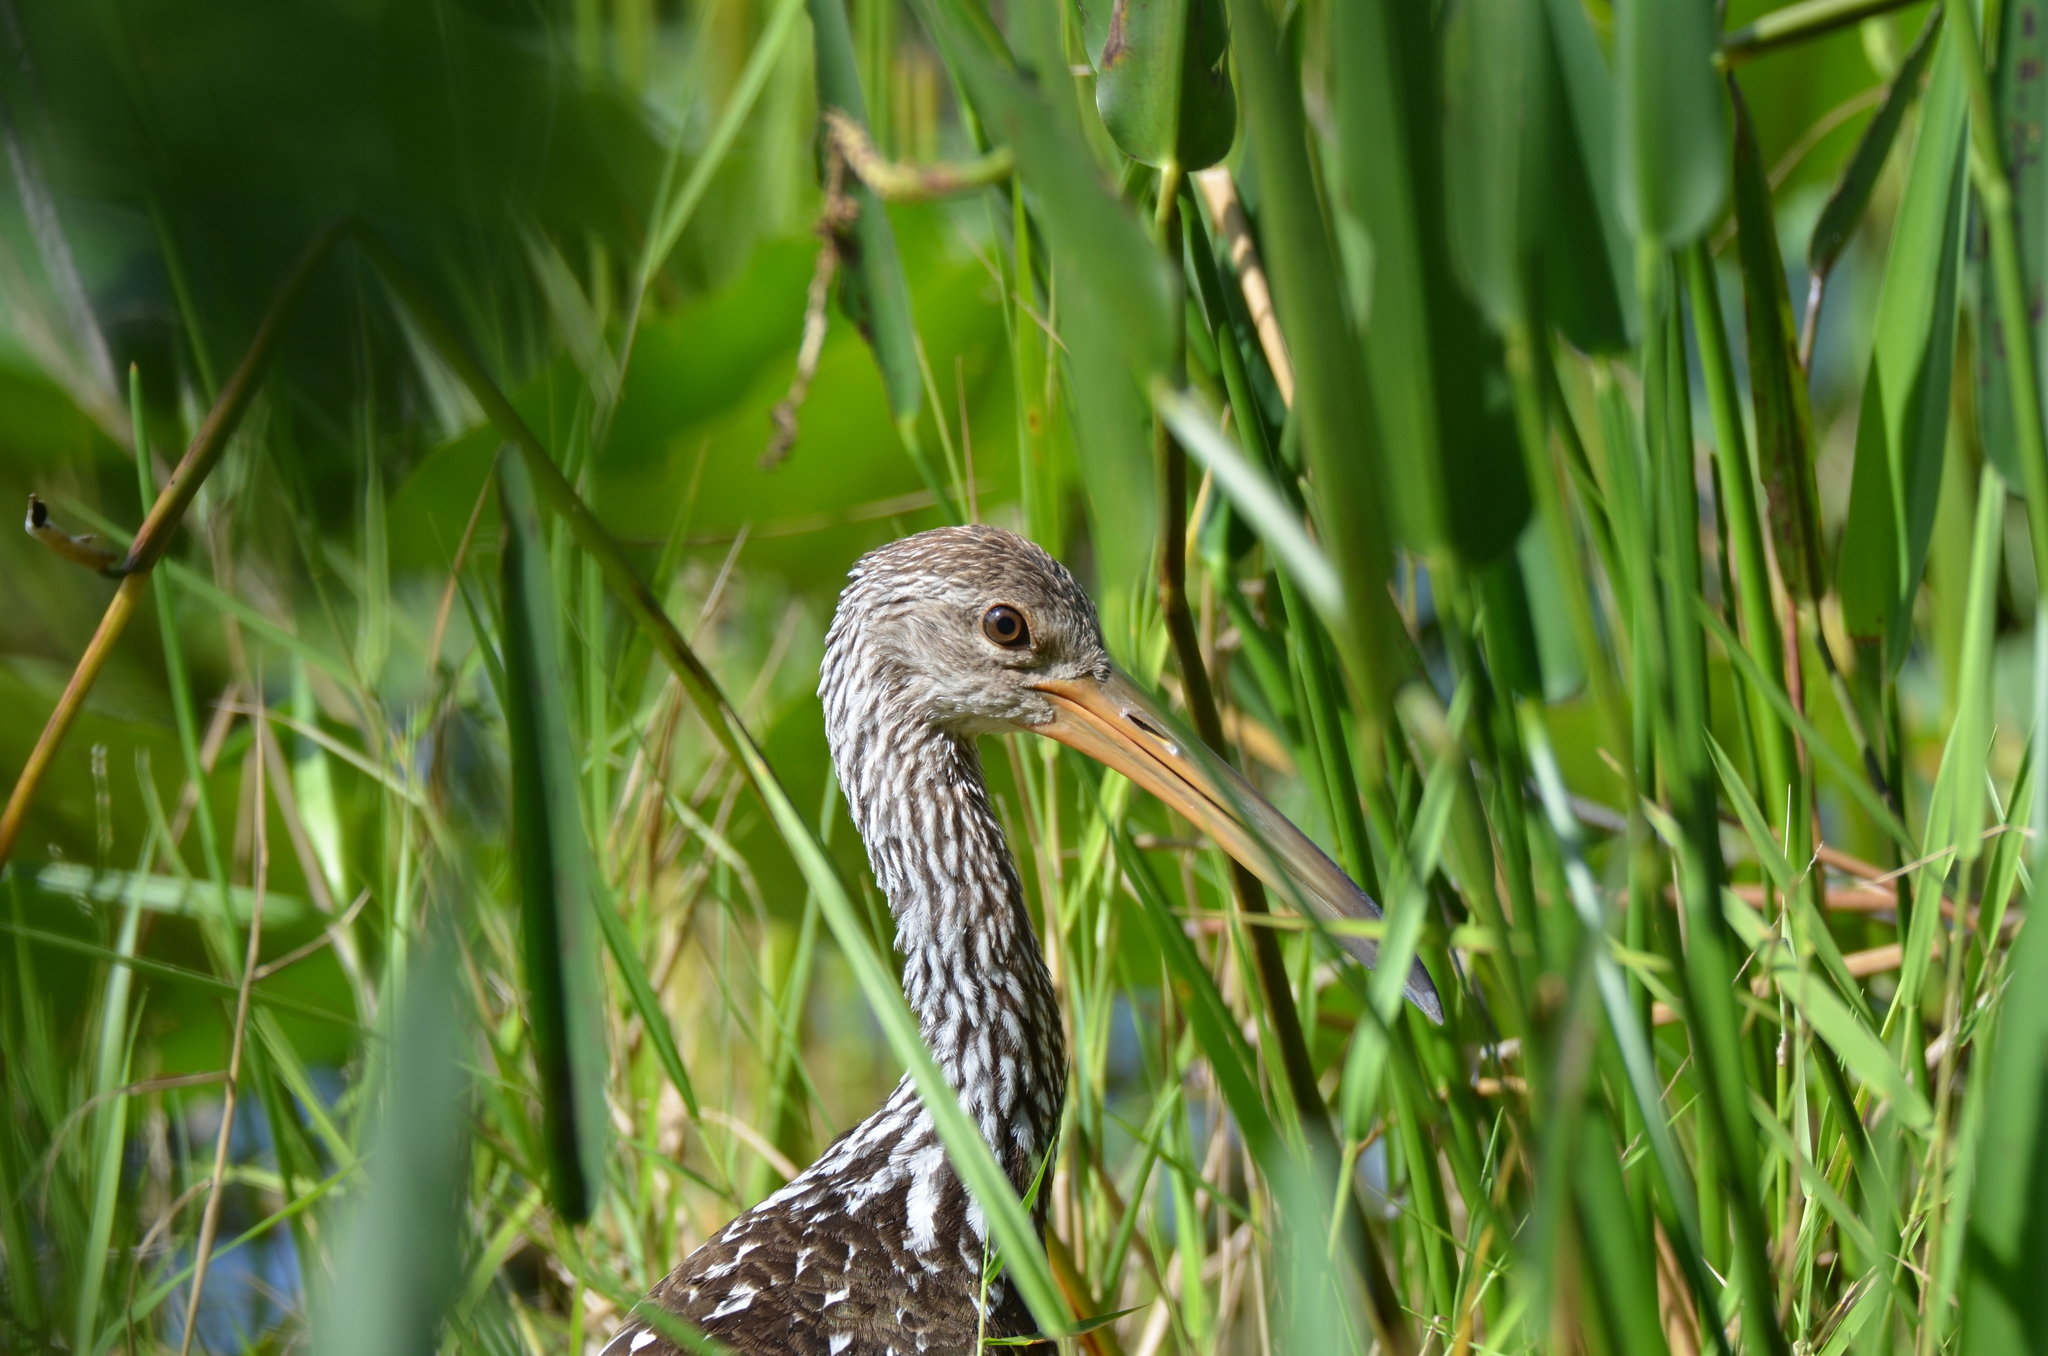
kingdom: Animalia
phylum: Chordata
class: Aves
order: Gruiformes
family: Aramidae
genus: Aramus
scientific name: Aramus guarauna
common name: Limpkin
